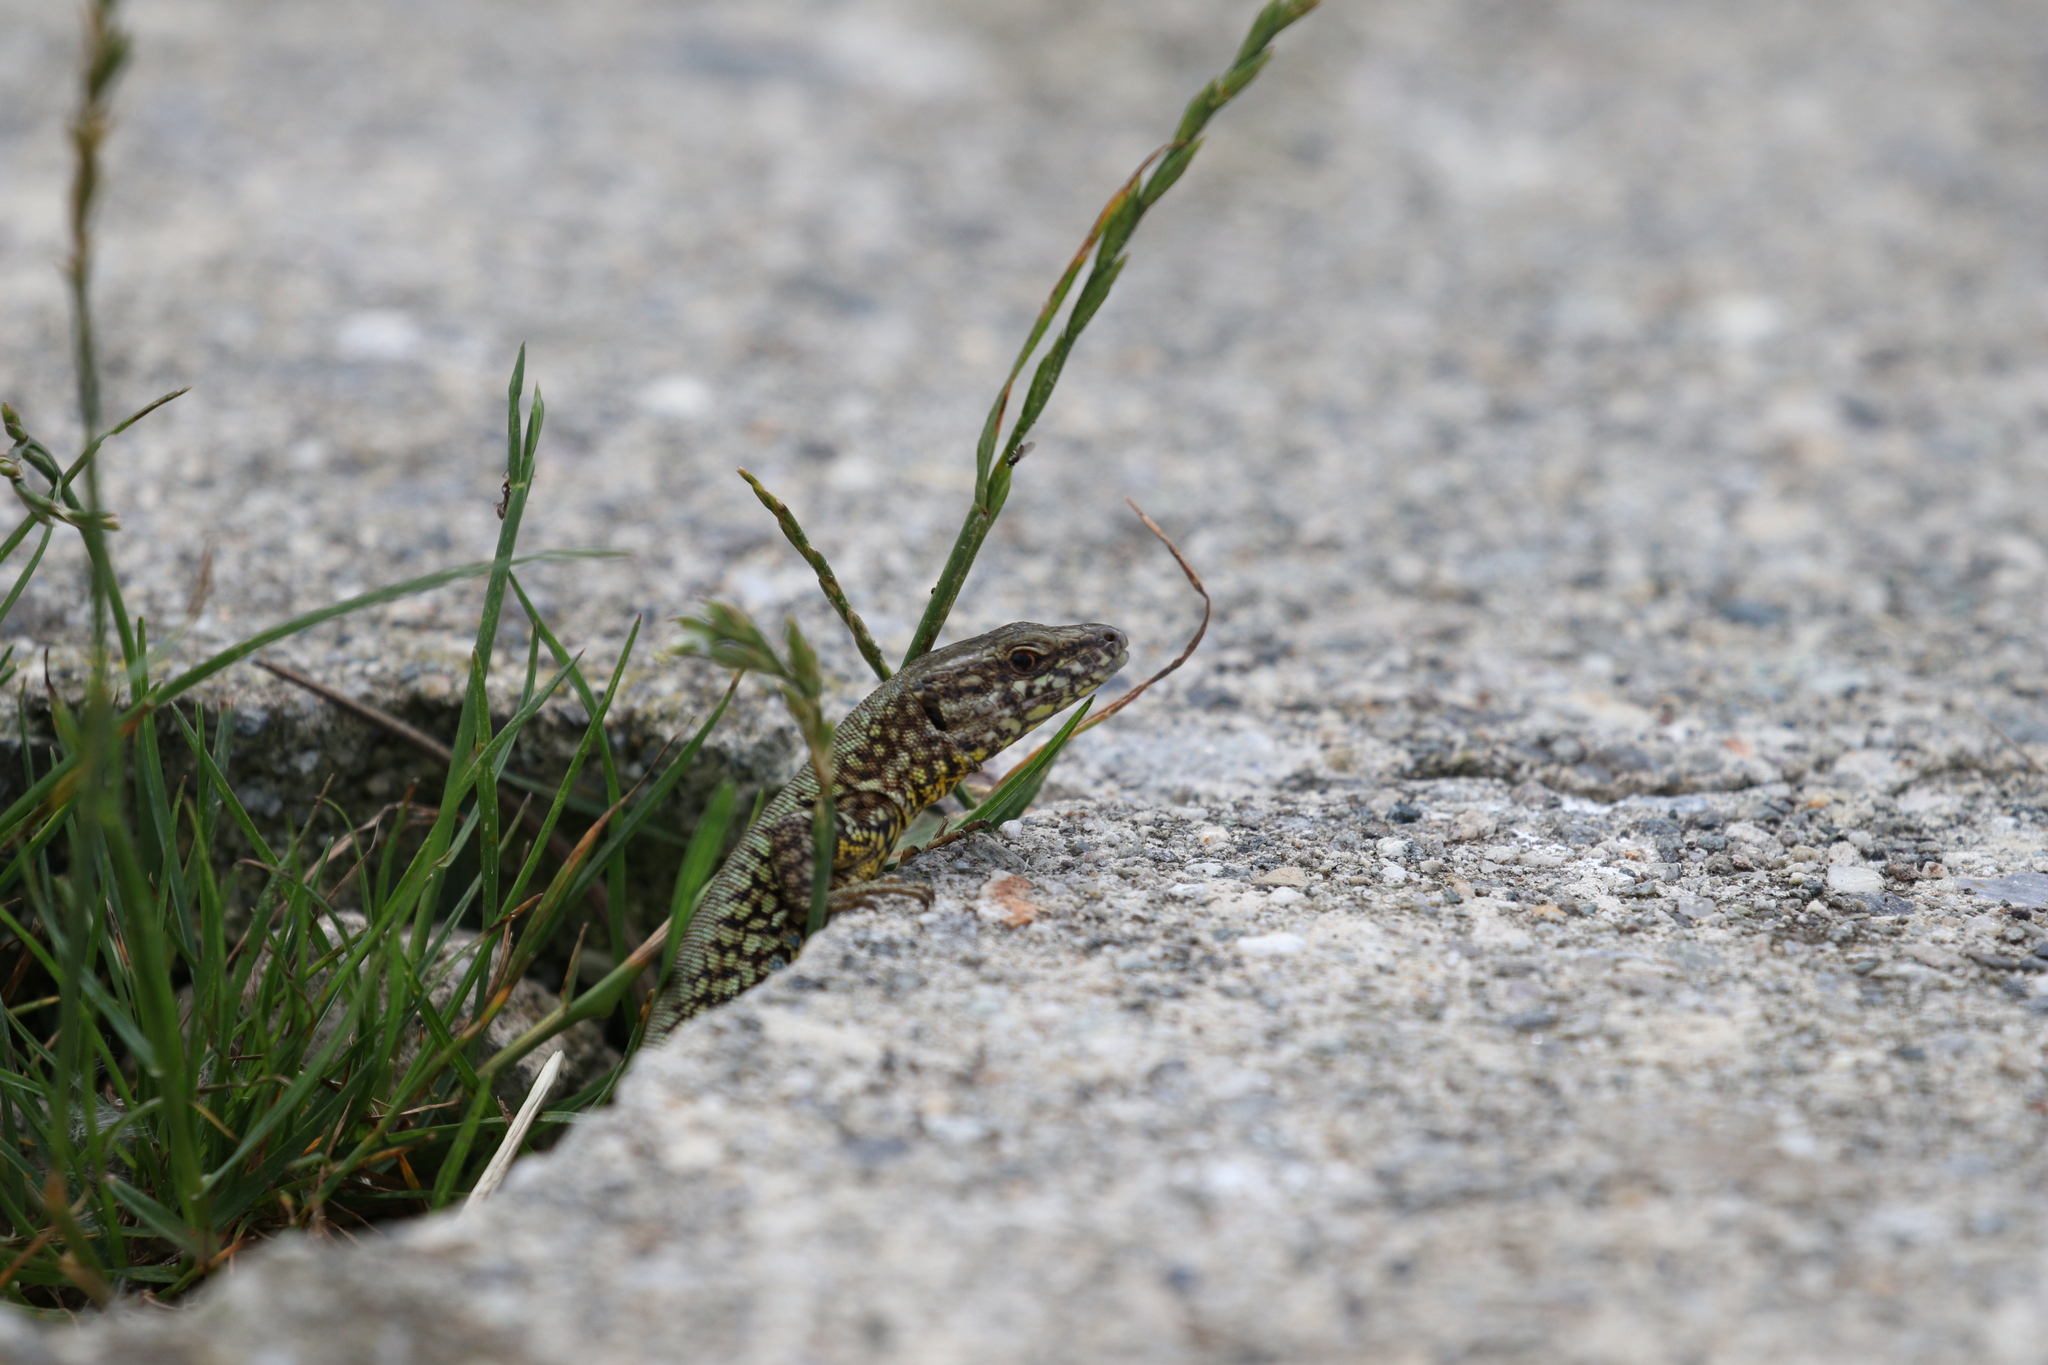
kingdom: Animalia
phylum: Chordata
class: Squamata
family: Lacertidae
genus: Podarcis
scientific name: Podarcis muralis
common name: Common wall lizard
